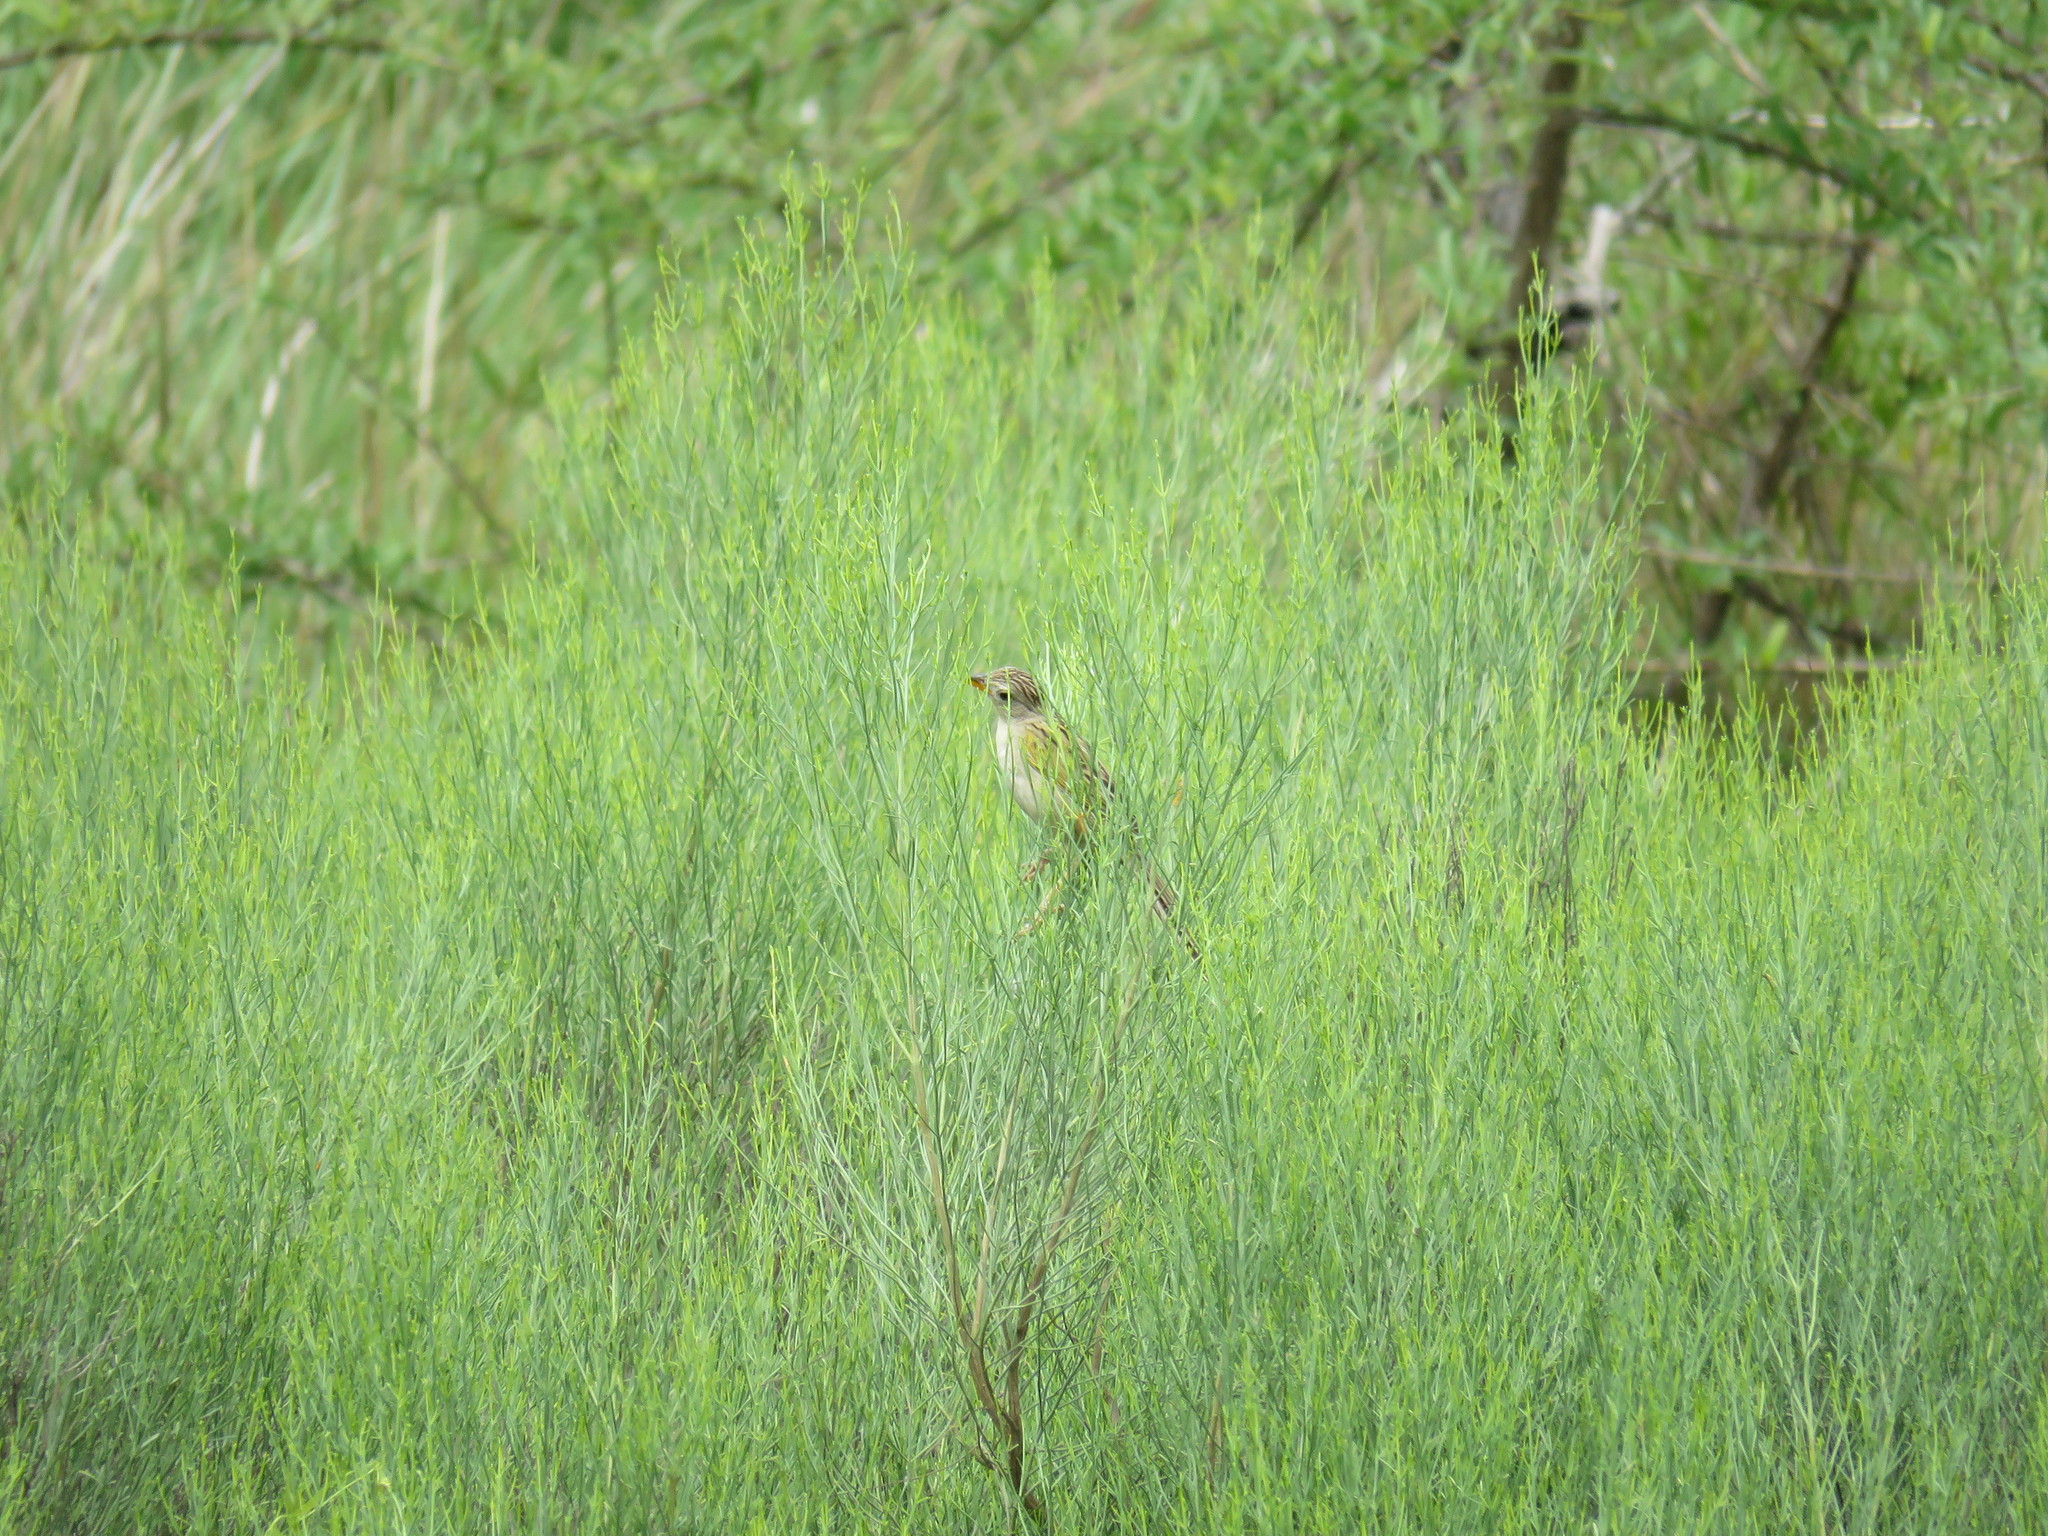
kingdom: Animalia
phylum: Chordata
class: Aves
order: Passeriformes
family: Thraupidae
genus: Emberizoides
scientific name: Emberizoides ypiranganus
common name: Lesser grass finch
